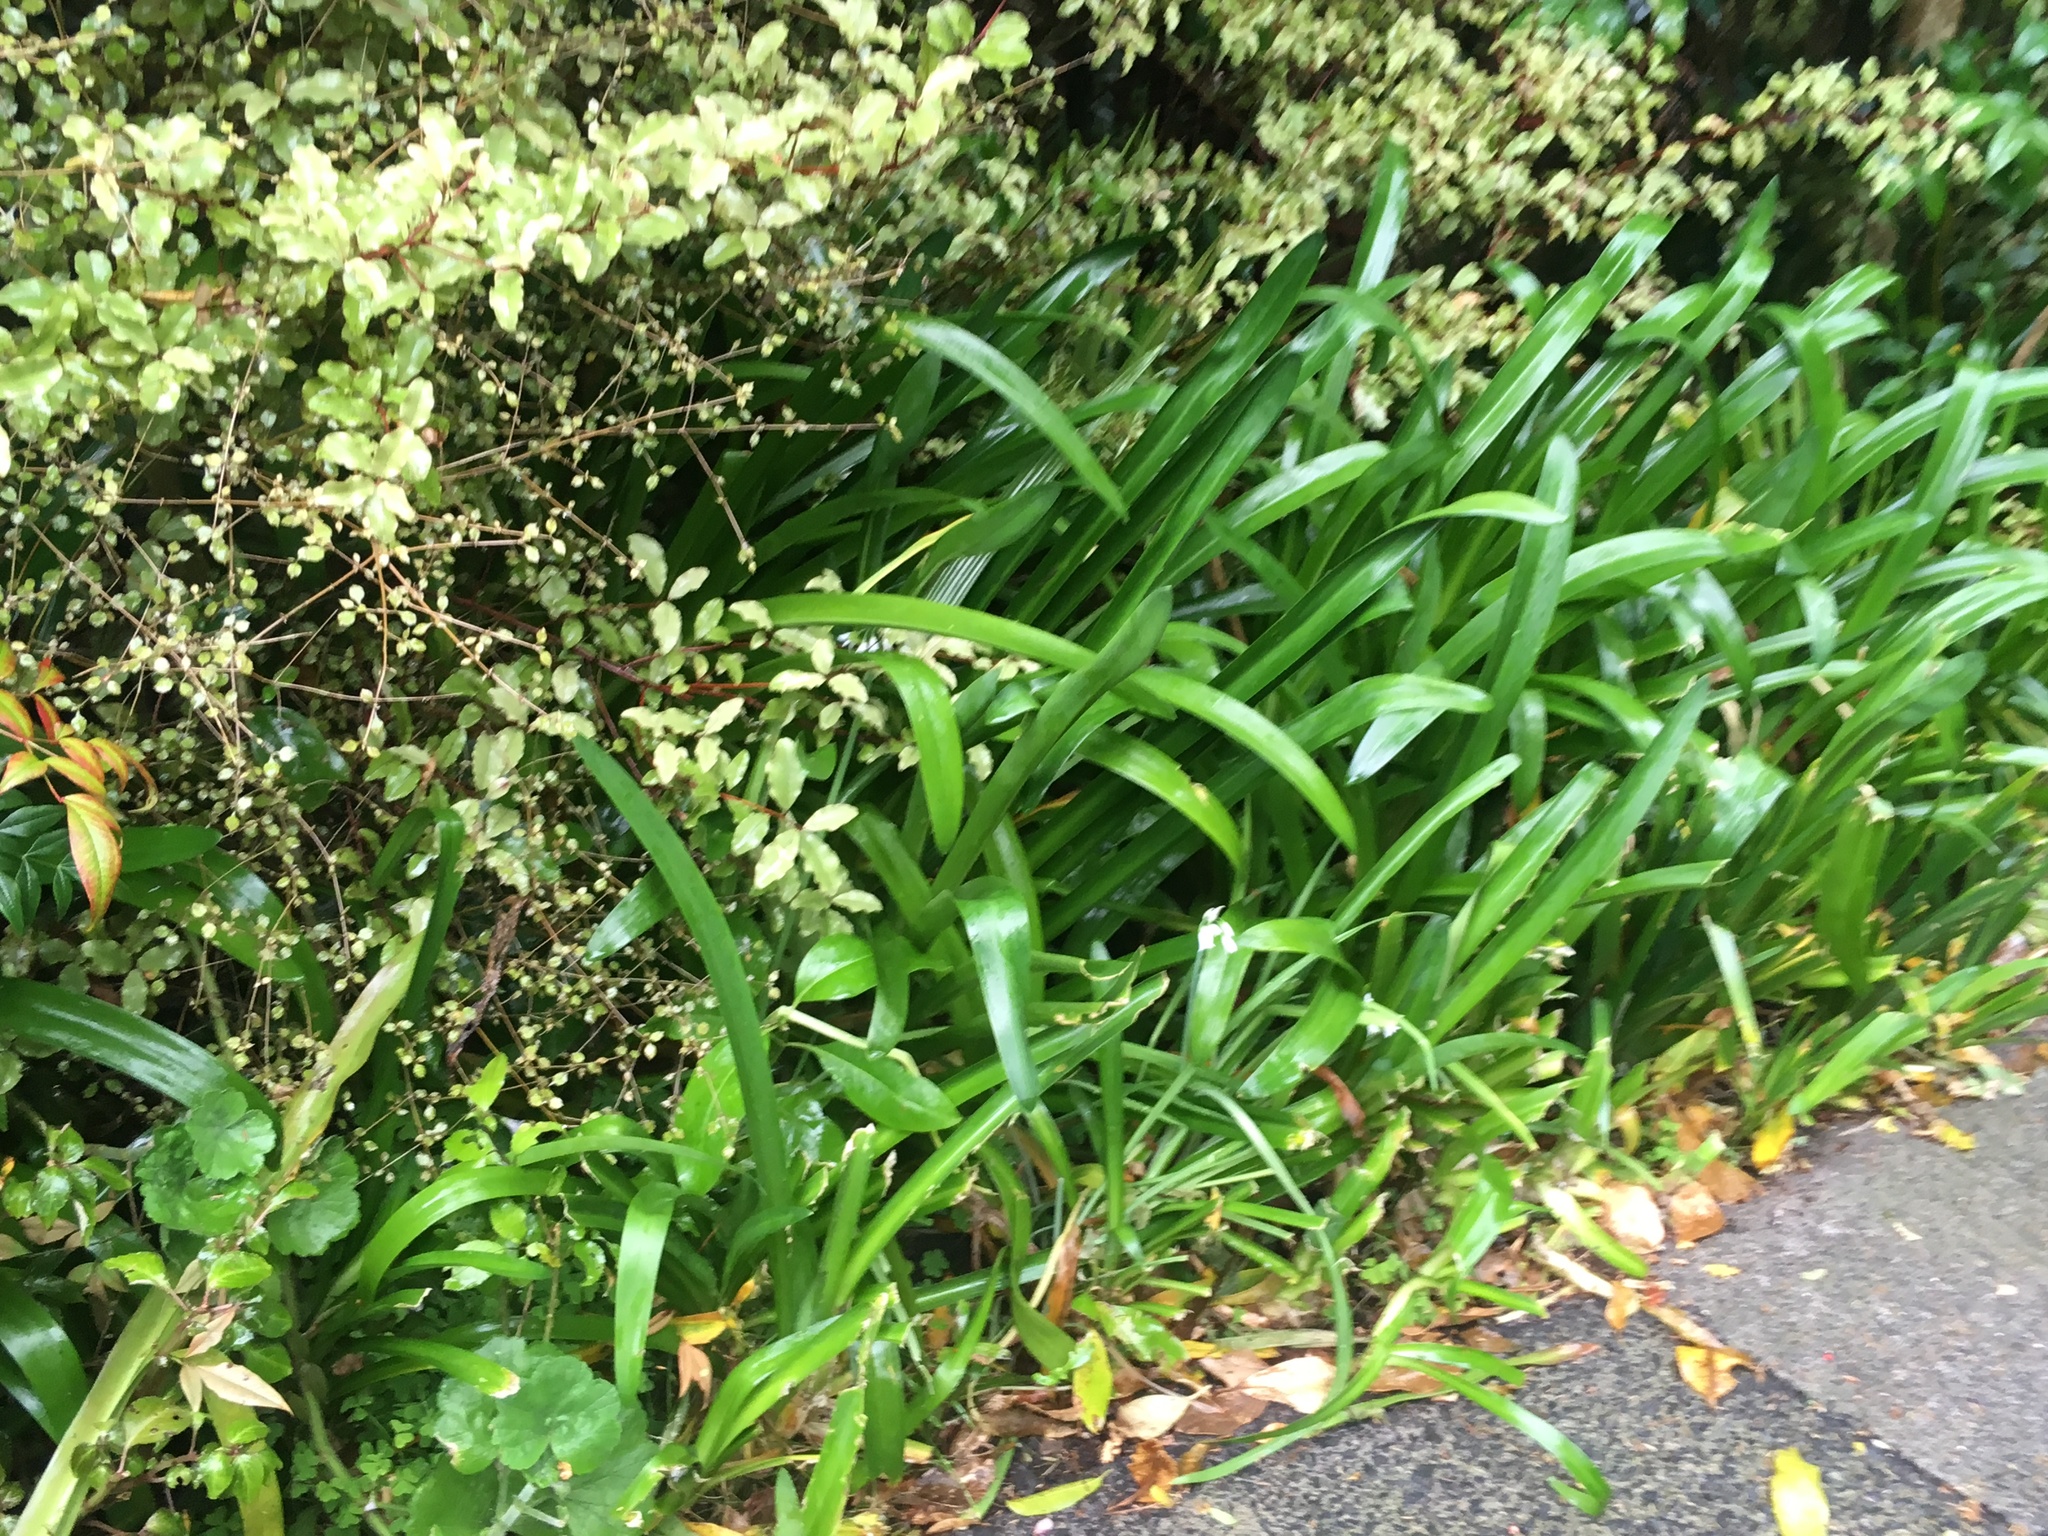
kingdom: Plantae
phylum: Tracheophyta
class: Liliopsida
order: Asparagales
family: Amaryllidaceae
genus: Agapanthus
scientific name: Agapanthus praecox
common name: African-lily
